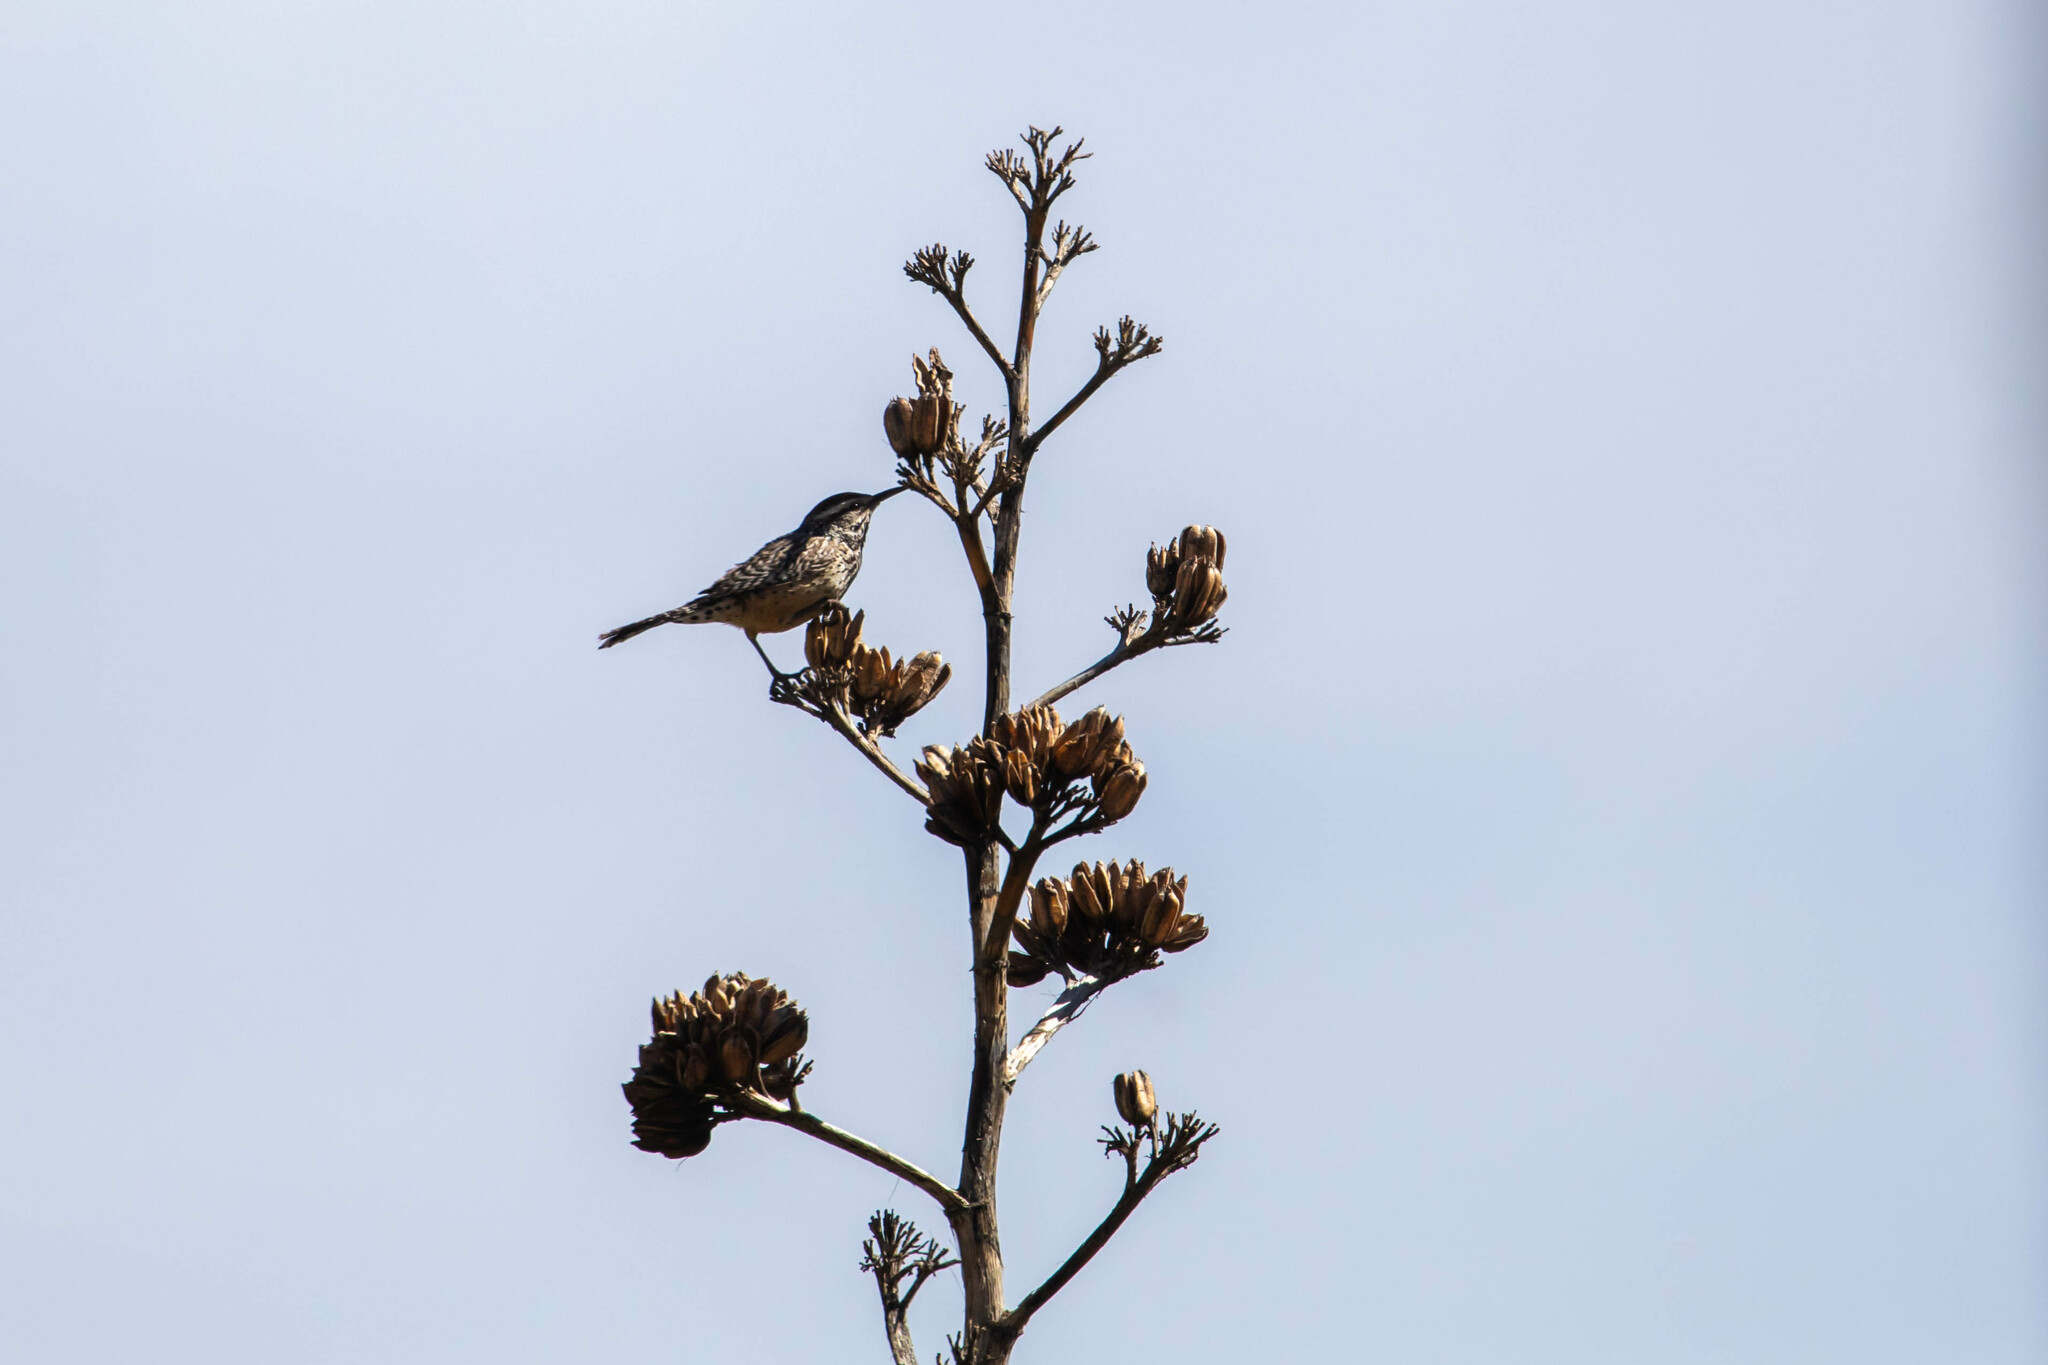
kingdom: Animalia
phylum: Chordata
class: Aves
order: Passeriformes
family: Troglodytidae
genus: Campylorhynchus
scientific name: Campylorhynchus brunneicapillus
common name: Cactus wren
